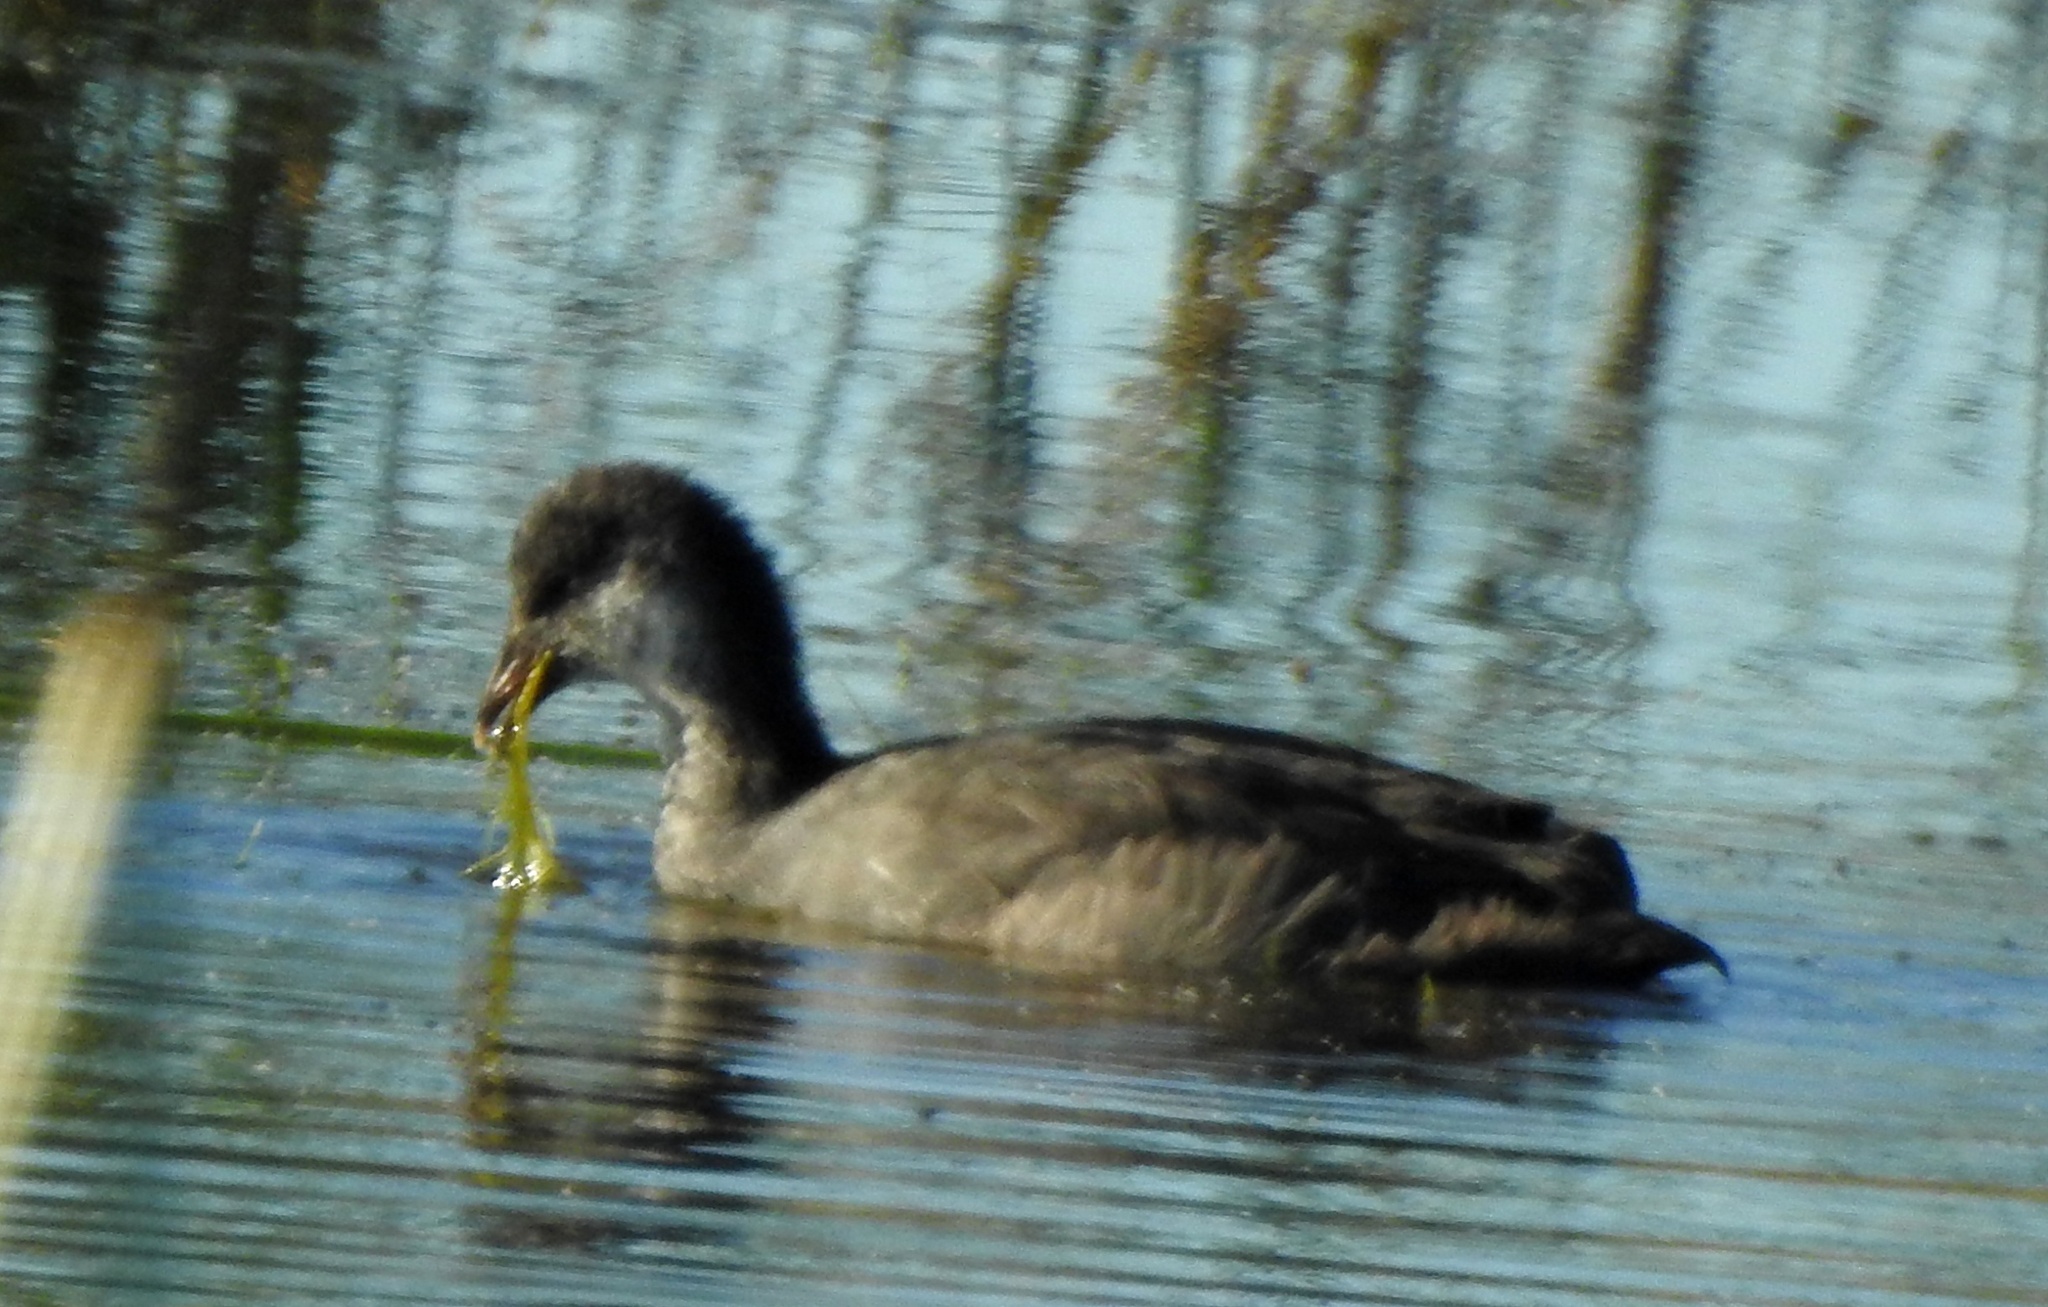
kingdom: Animalia
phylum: Chordata
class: Aves
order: Gruiformes
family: Rallidae
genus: Fulica
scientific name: Fulica atra
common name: Eurasian coot
